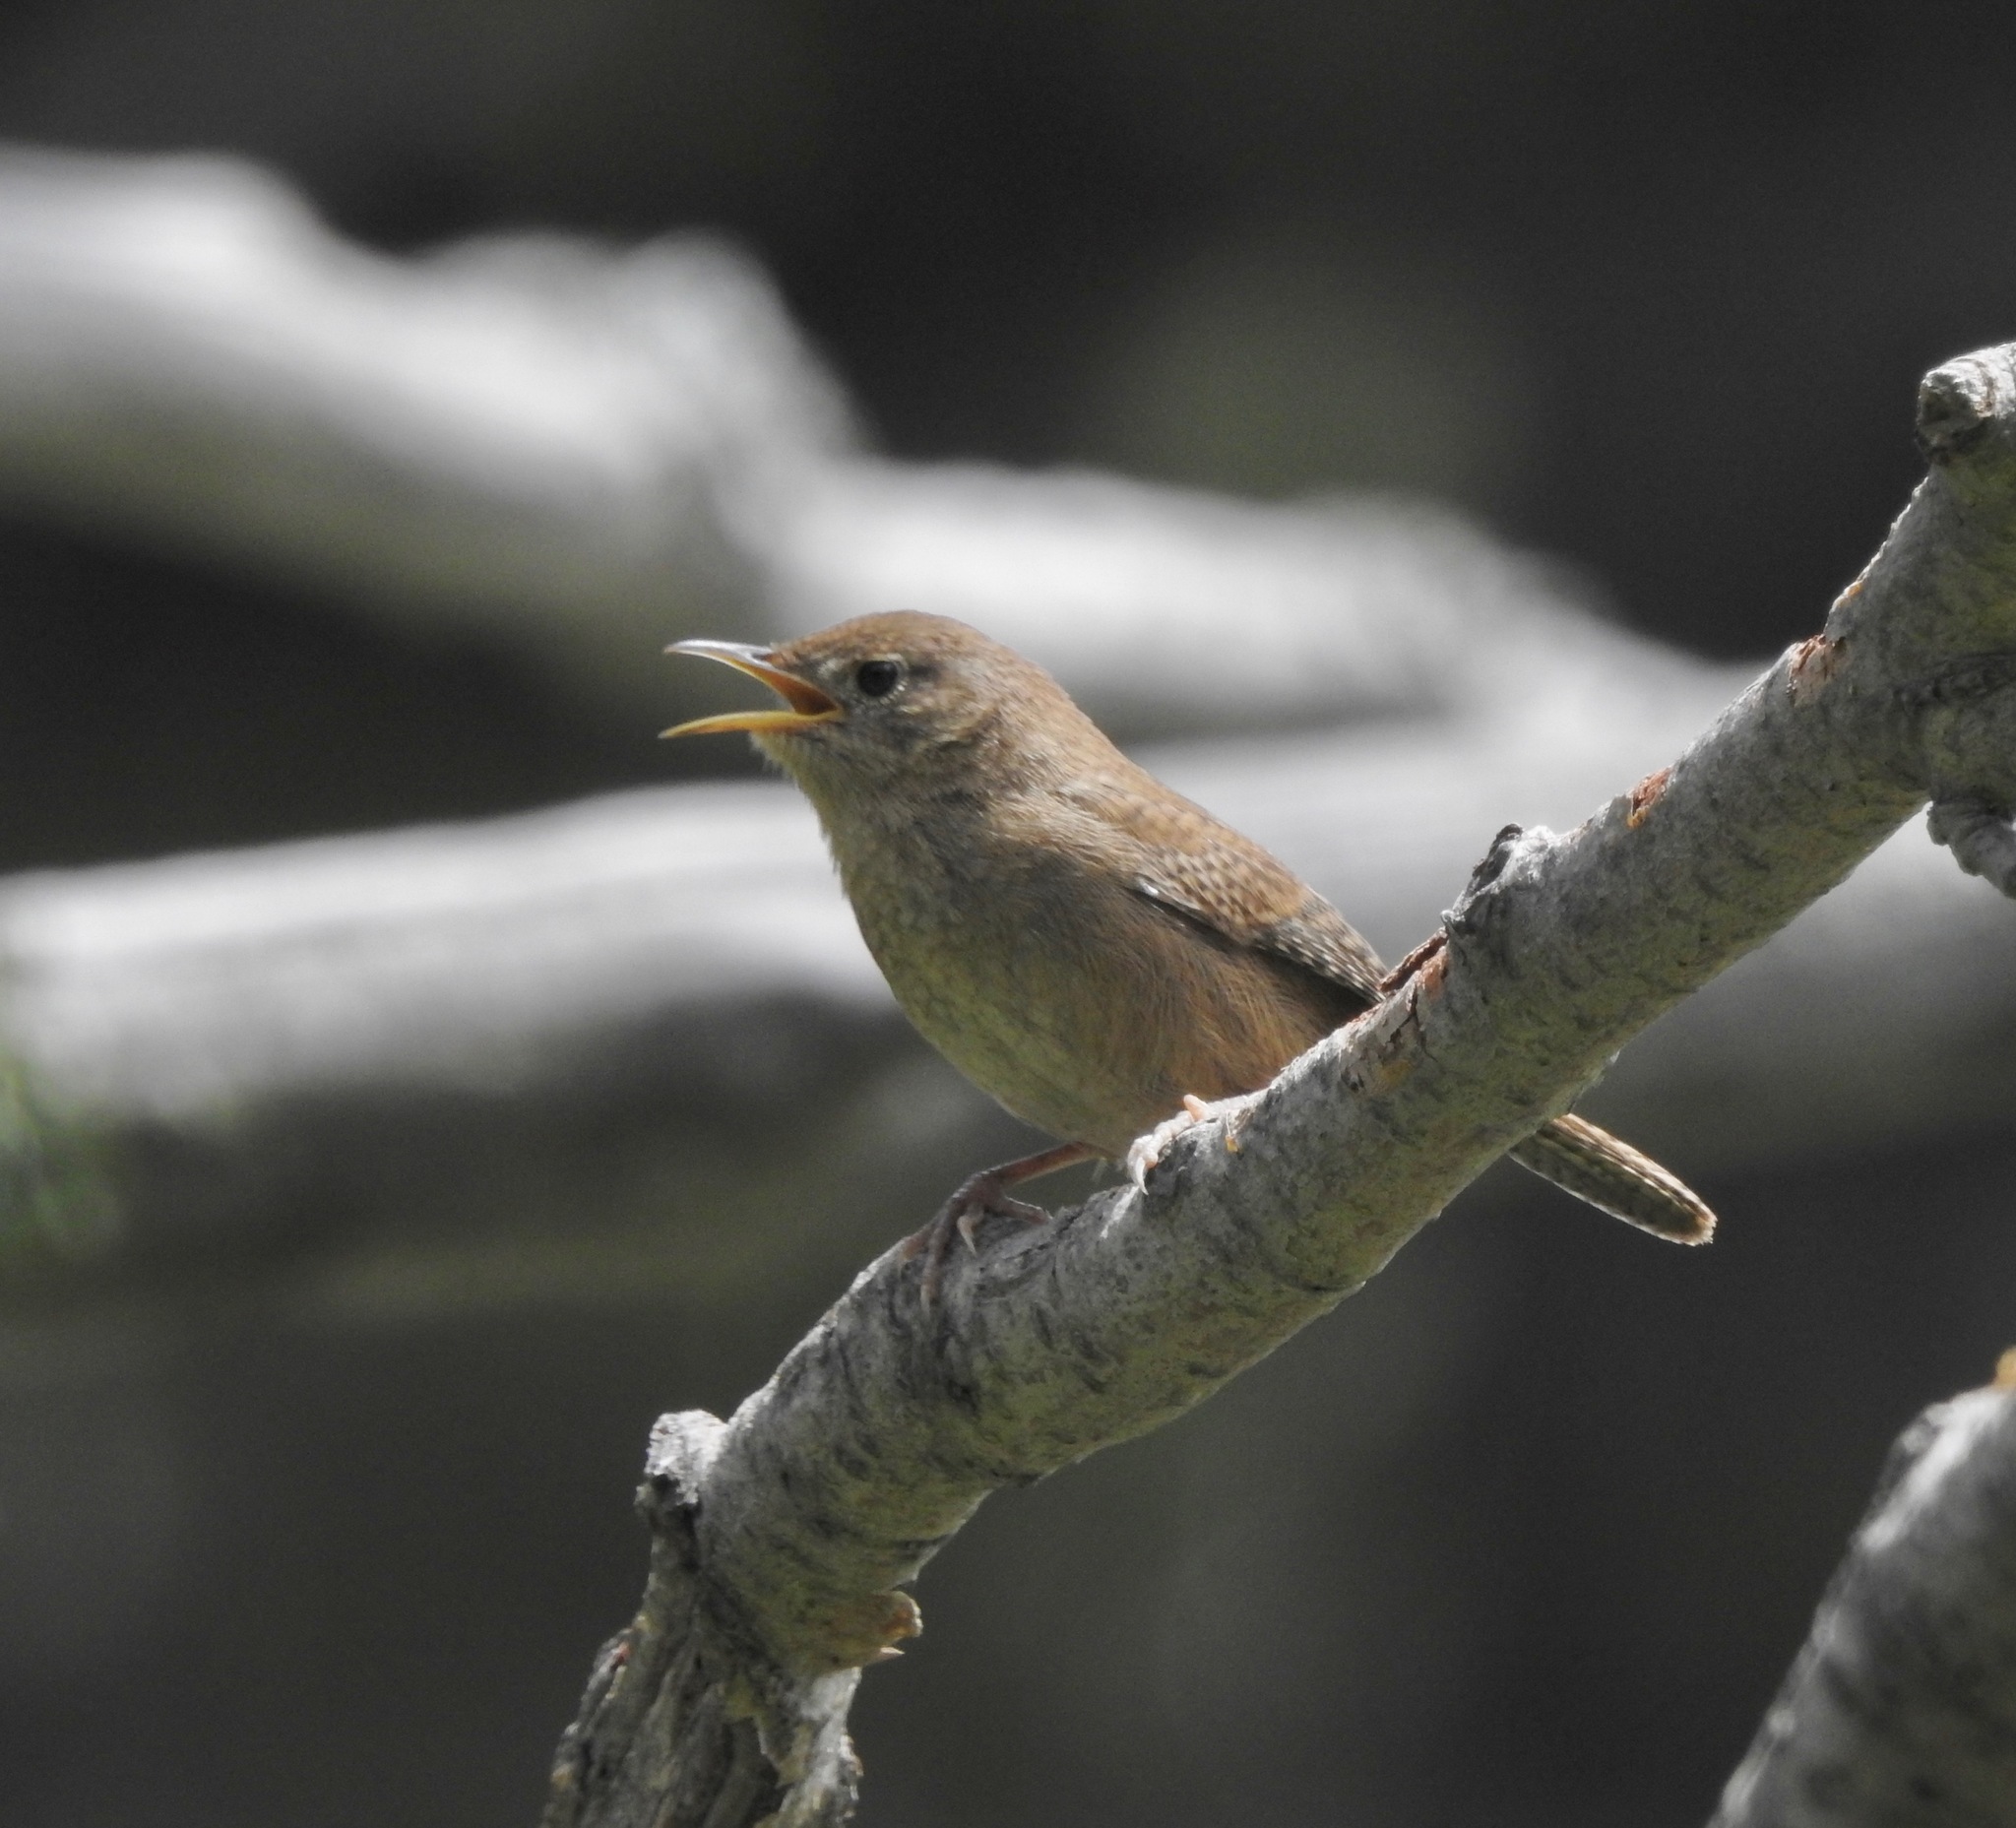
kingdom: Animalia
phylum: Chordata
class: Aves
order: Passeriformes
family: Troglodytidae
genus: Troglodytes
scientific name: Troglodytes aedon
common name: House wren
